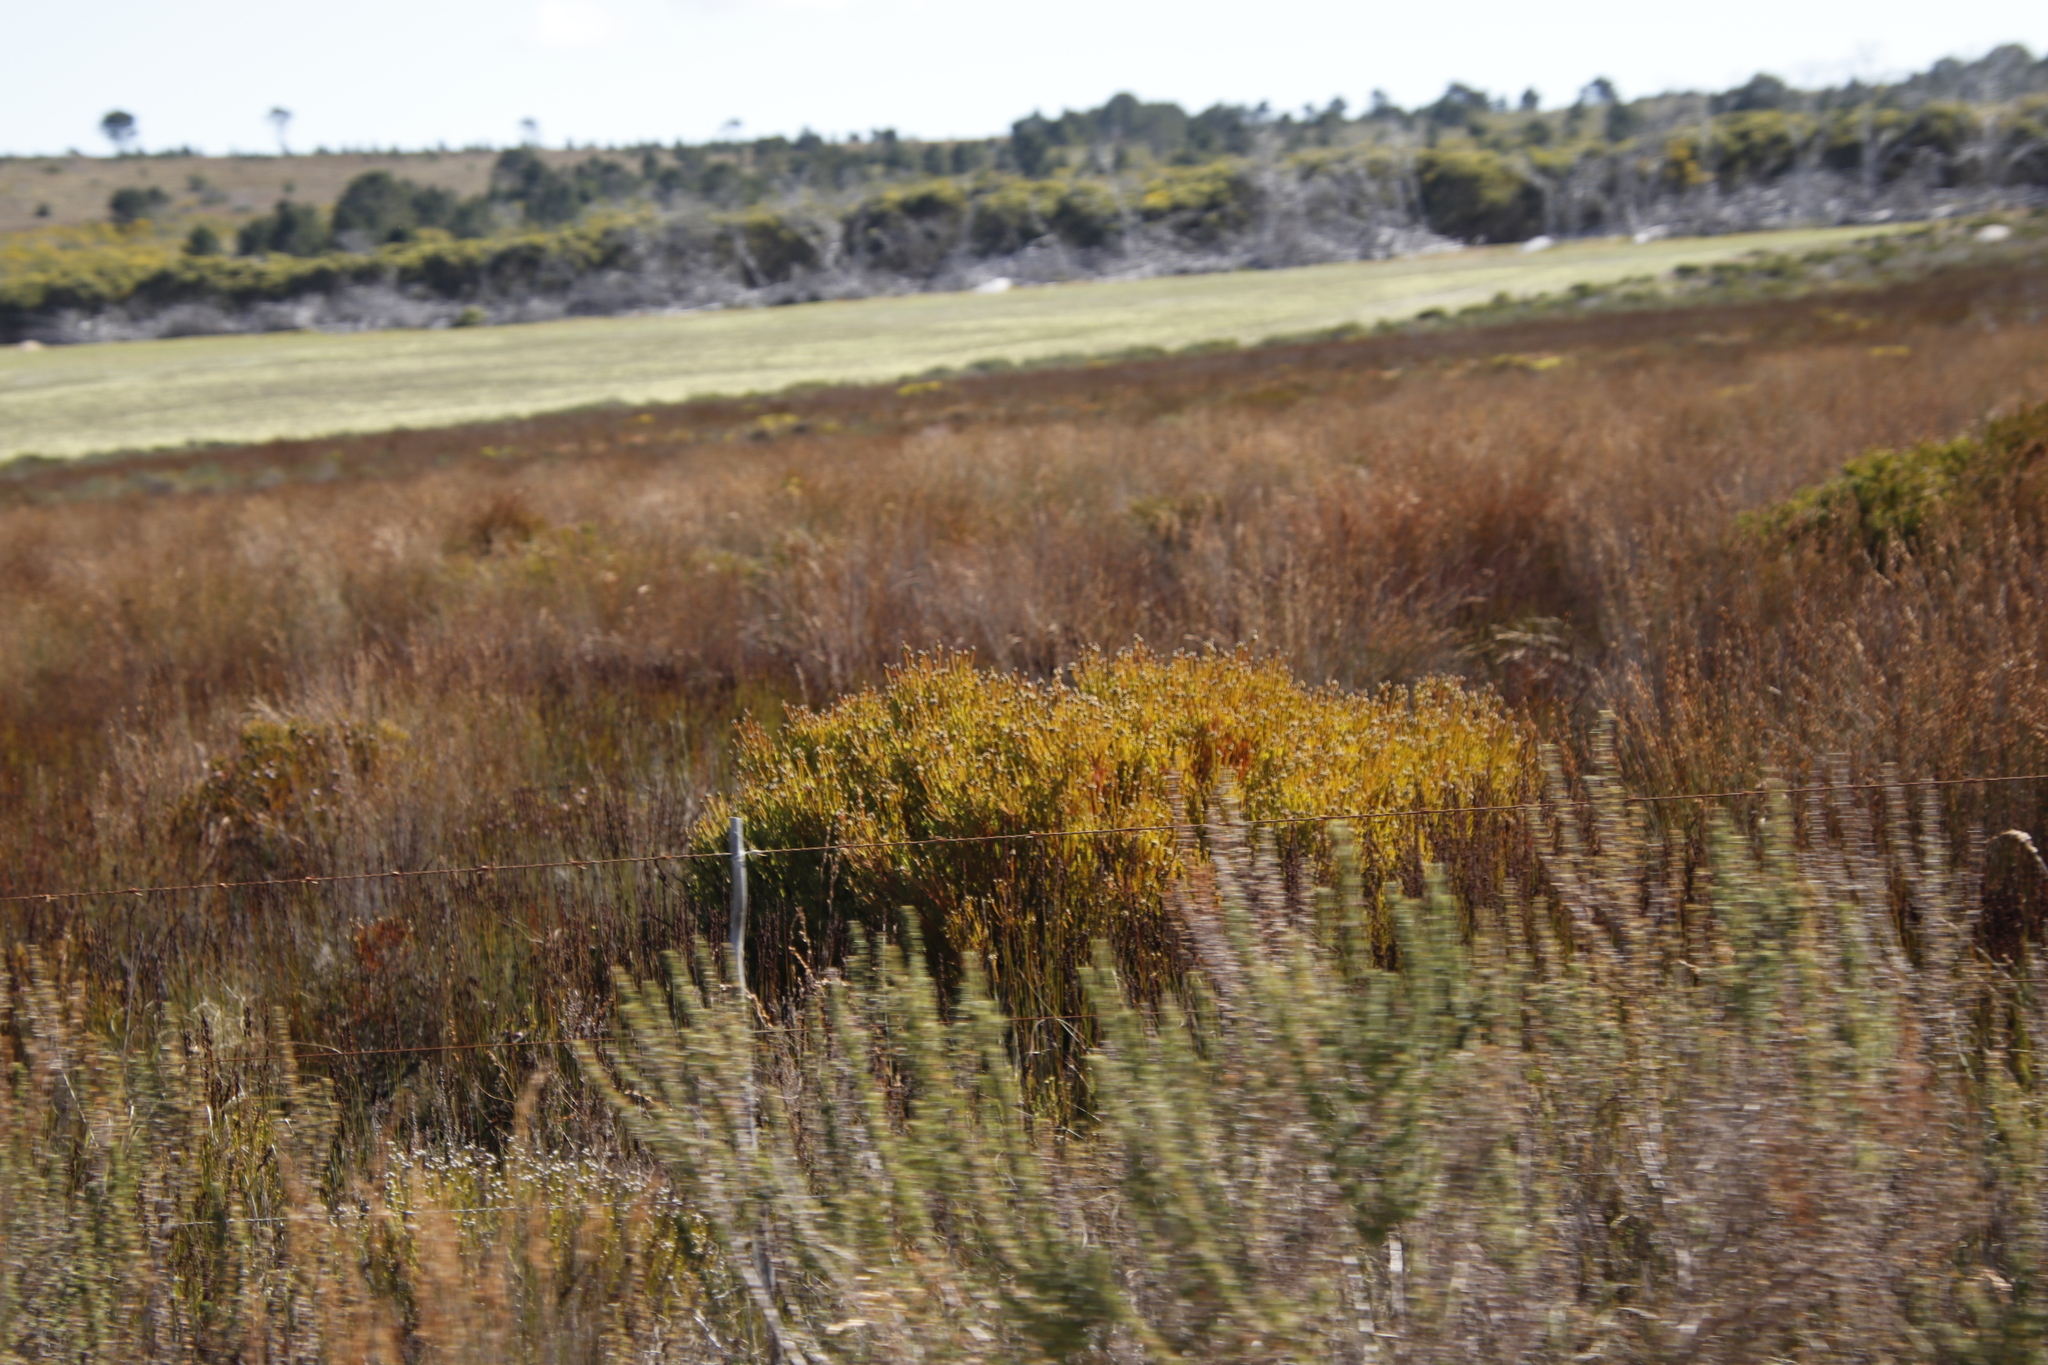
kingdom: Plantae
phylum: Tracheophyta
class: Magnoliopsida
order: Proteales
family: Proteaceae
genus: Leucadendron
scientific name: Leucadendron linifolium
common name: Line-leaf conebush
